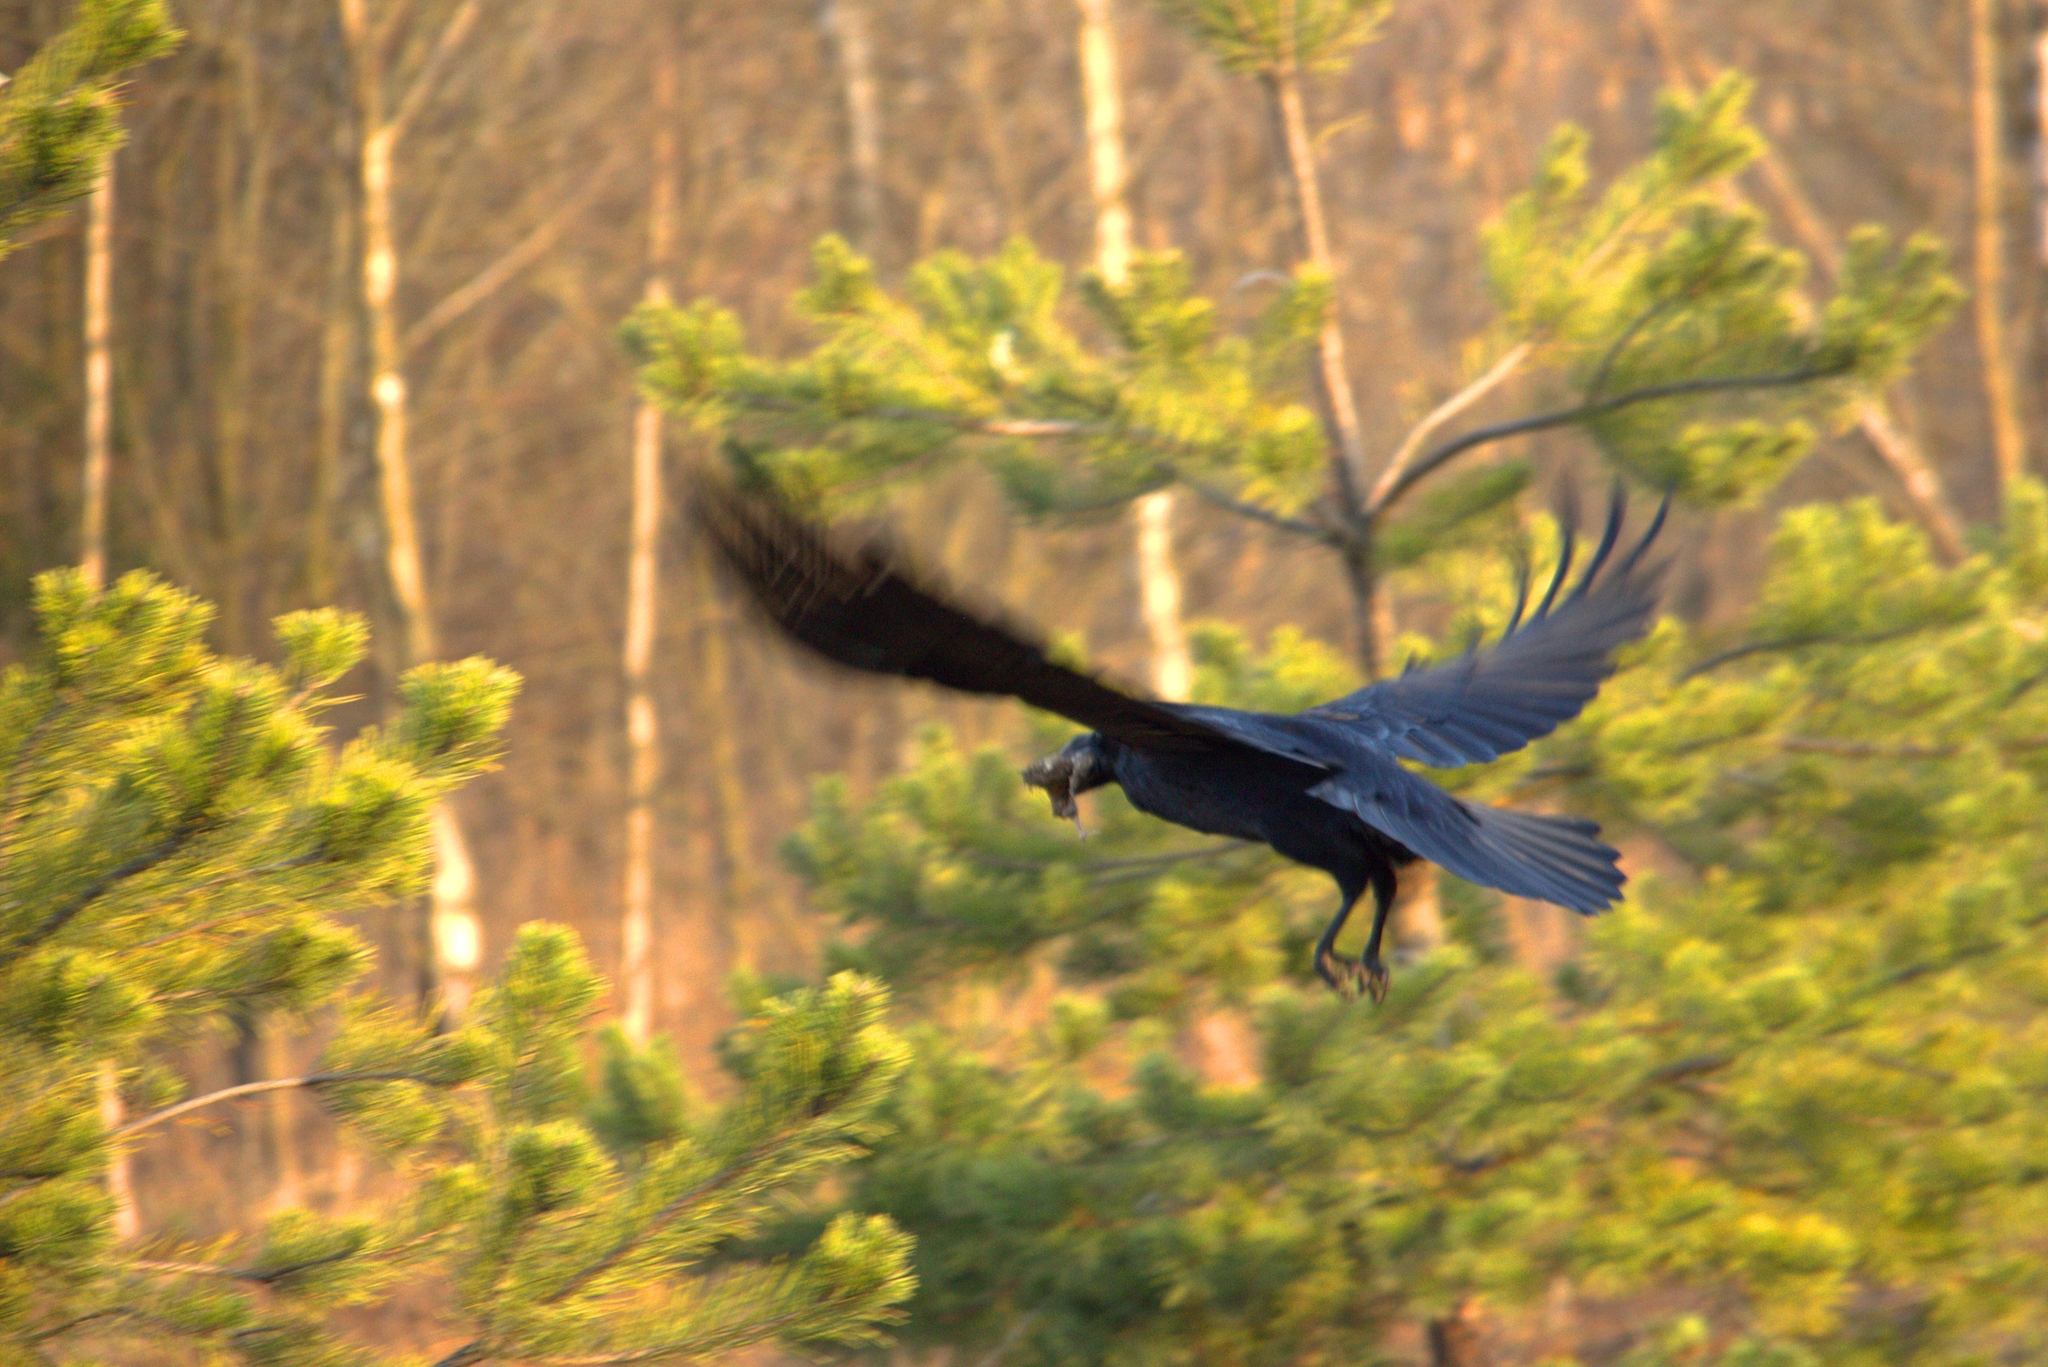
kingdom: Animalia
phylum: Chordata
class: Aves
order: Passeriformes
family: Corvidae
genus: Corvus
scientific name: Corvus corax
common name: Common raven
